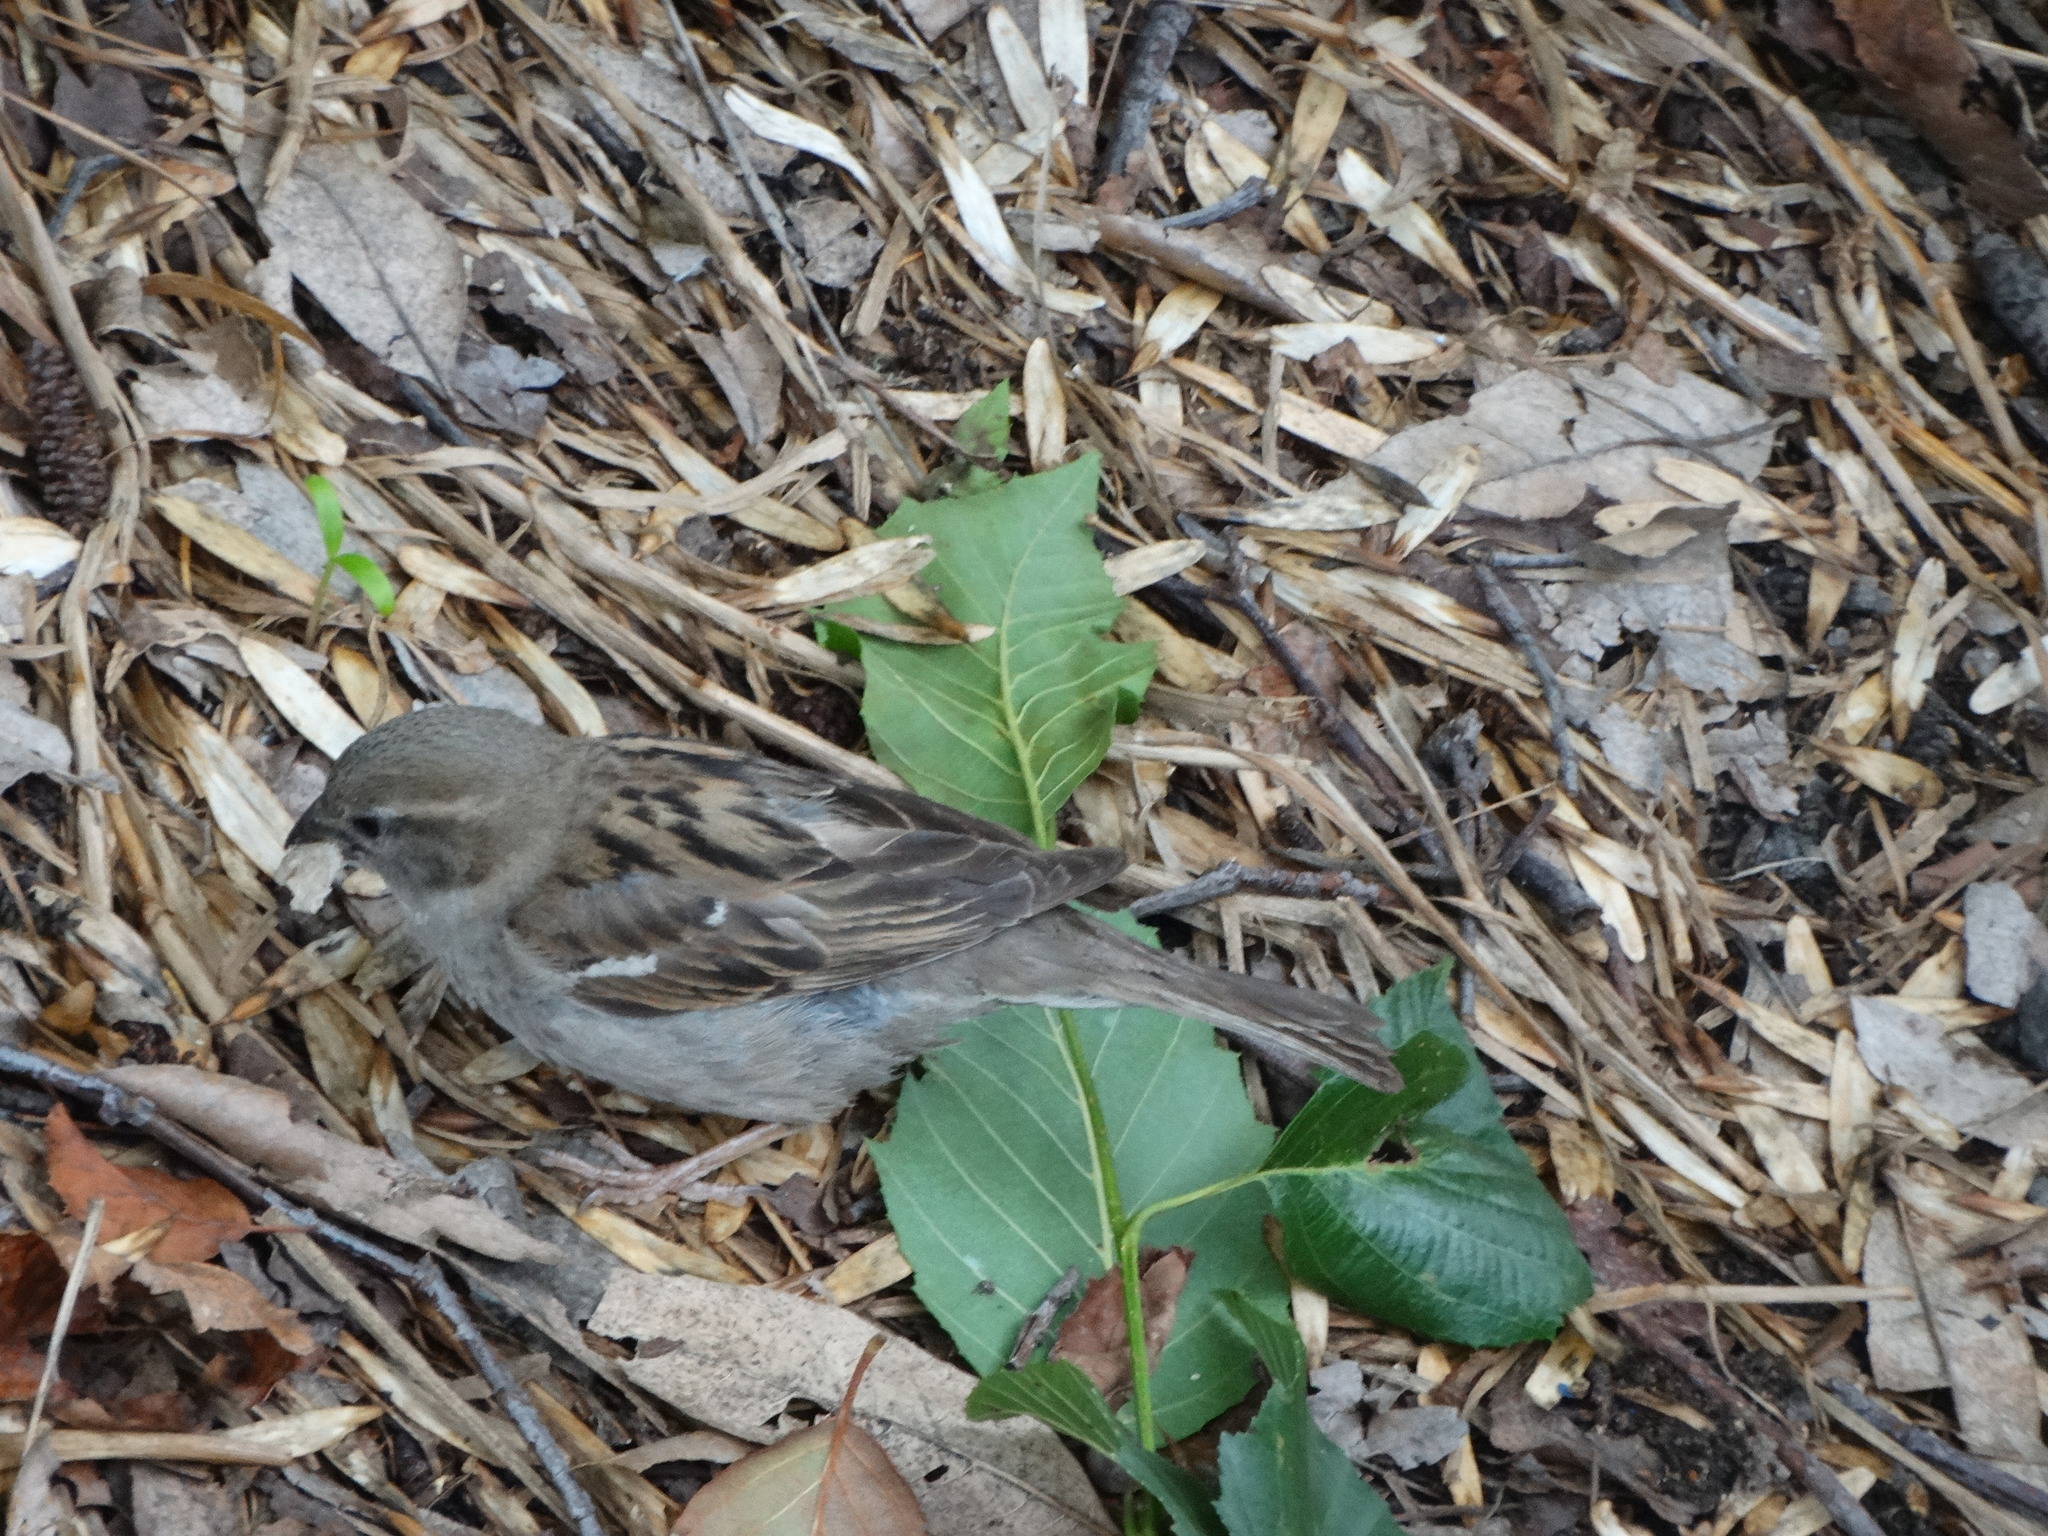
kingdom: Animalia
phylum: Chordata
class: Aves
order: Passeriformes
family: Passeridae
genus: Passer
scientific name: Passer domesticus
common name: House sparrow
